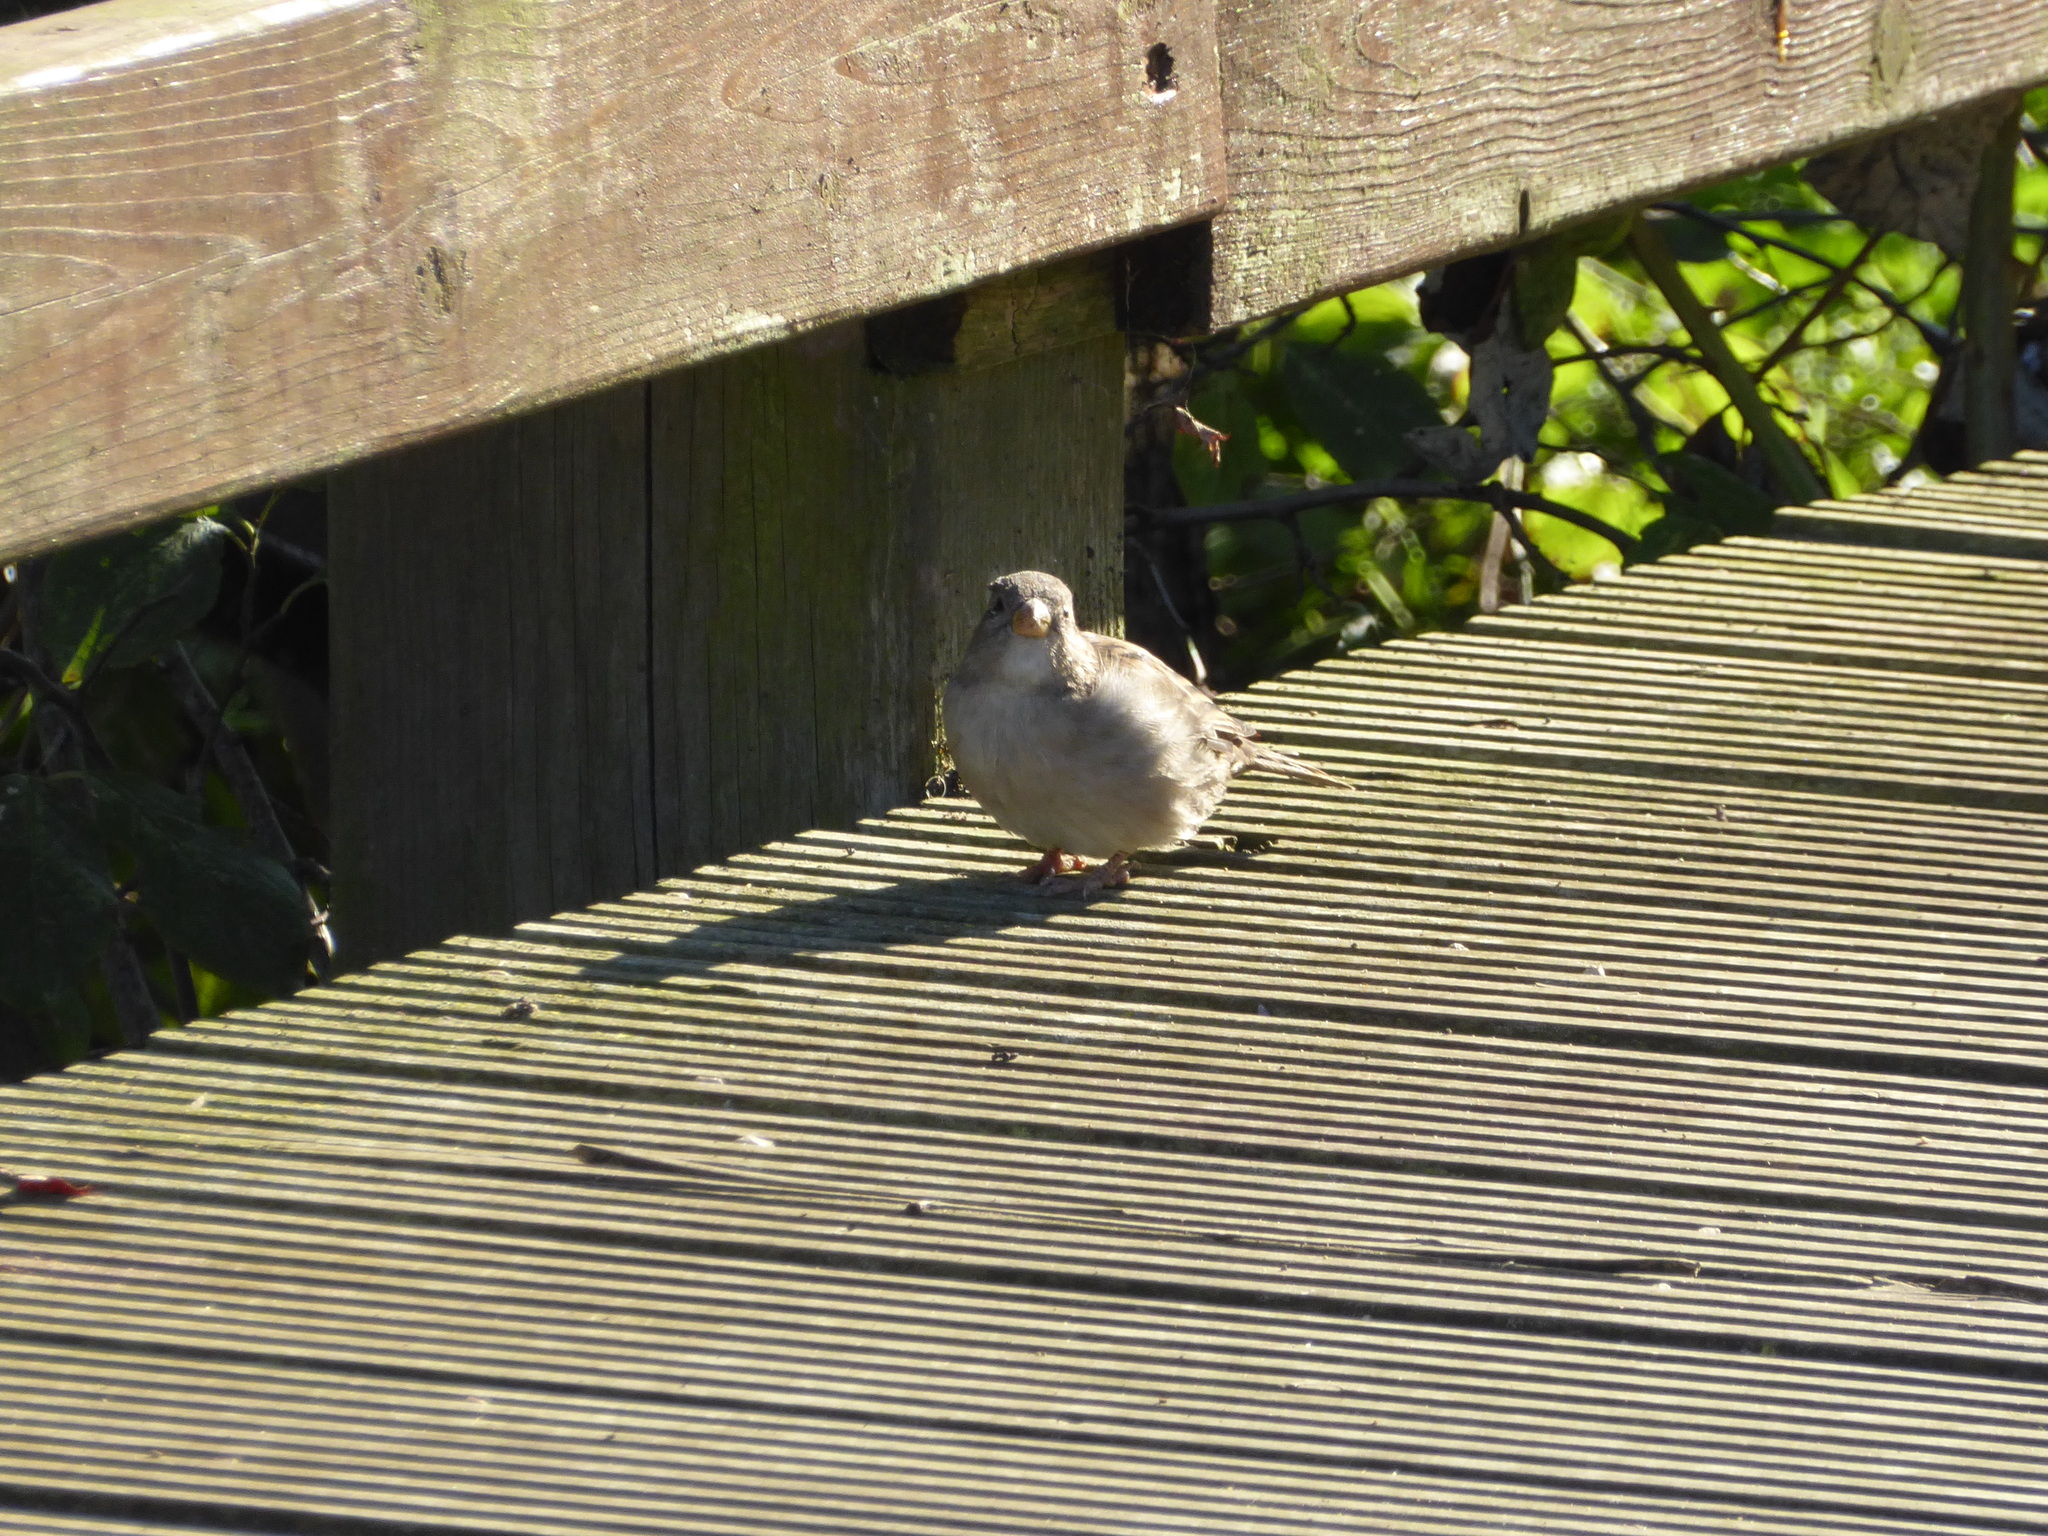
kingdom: Animalia
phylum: Chordata
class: Aves
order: Passeriformes
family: Passeridae
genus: Passer
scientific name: Passer domesticus
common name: House sparrow
